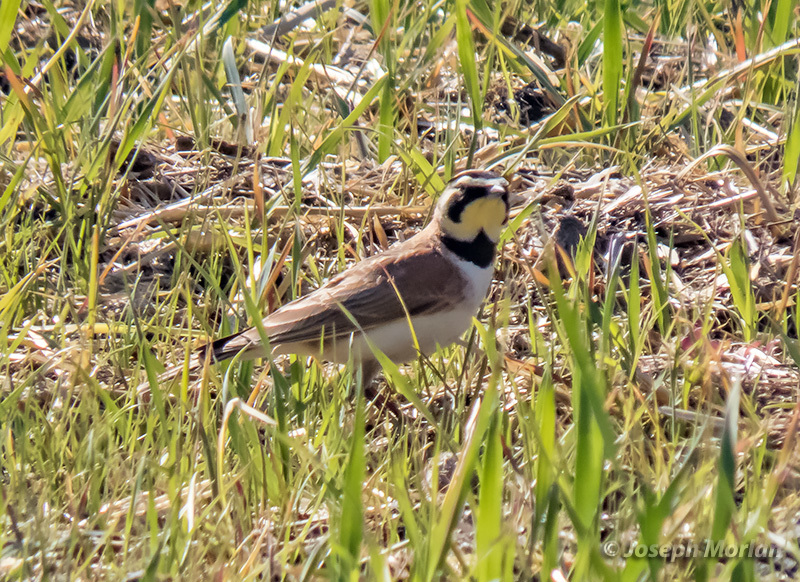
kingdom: Animalia
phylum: Chordata
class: Aves
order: Passeriformes
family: Alaudidae
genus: Eremophila
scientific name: Eremophila alpestris
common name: Horned lark
